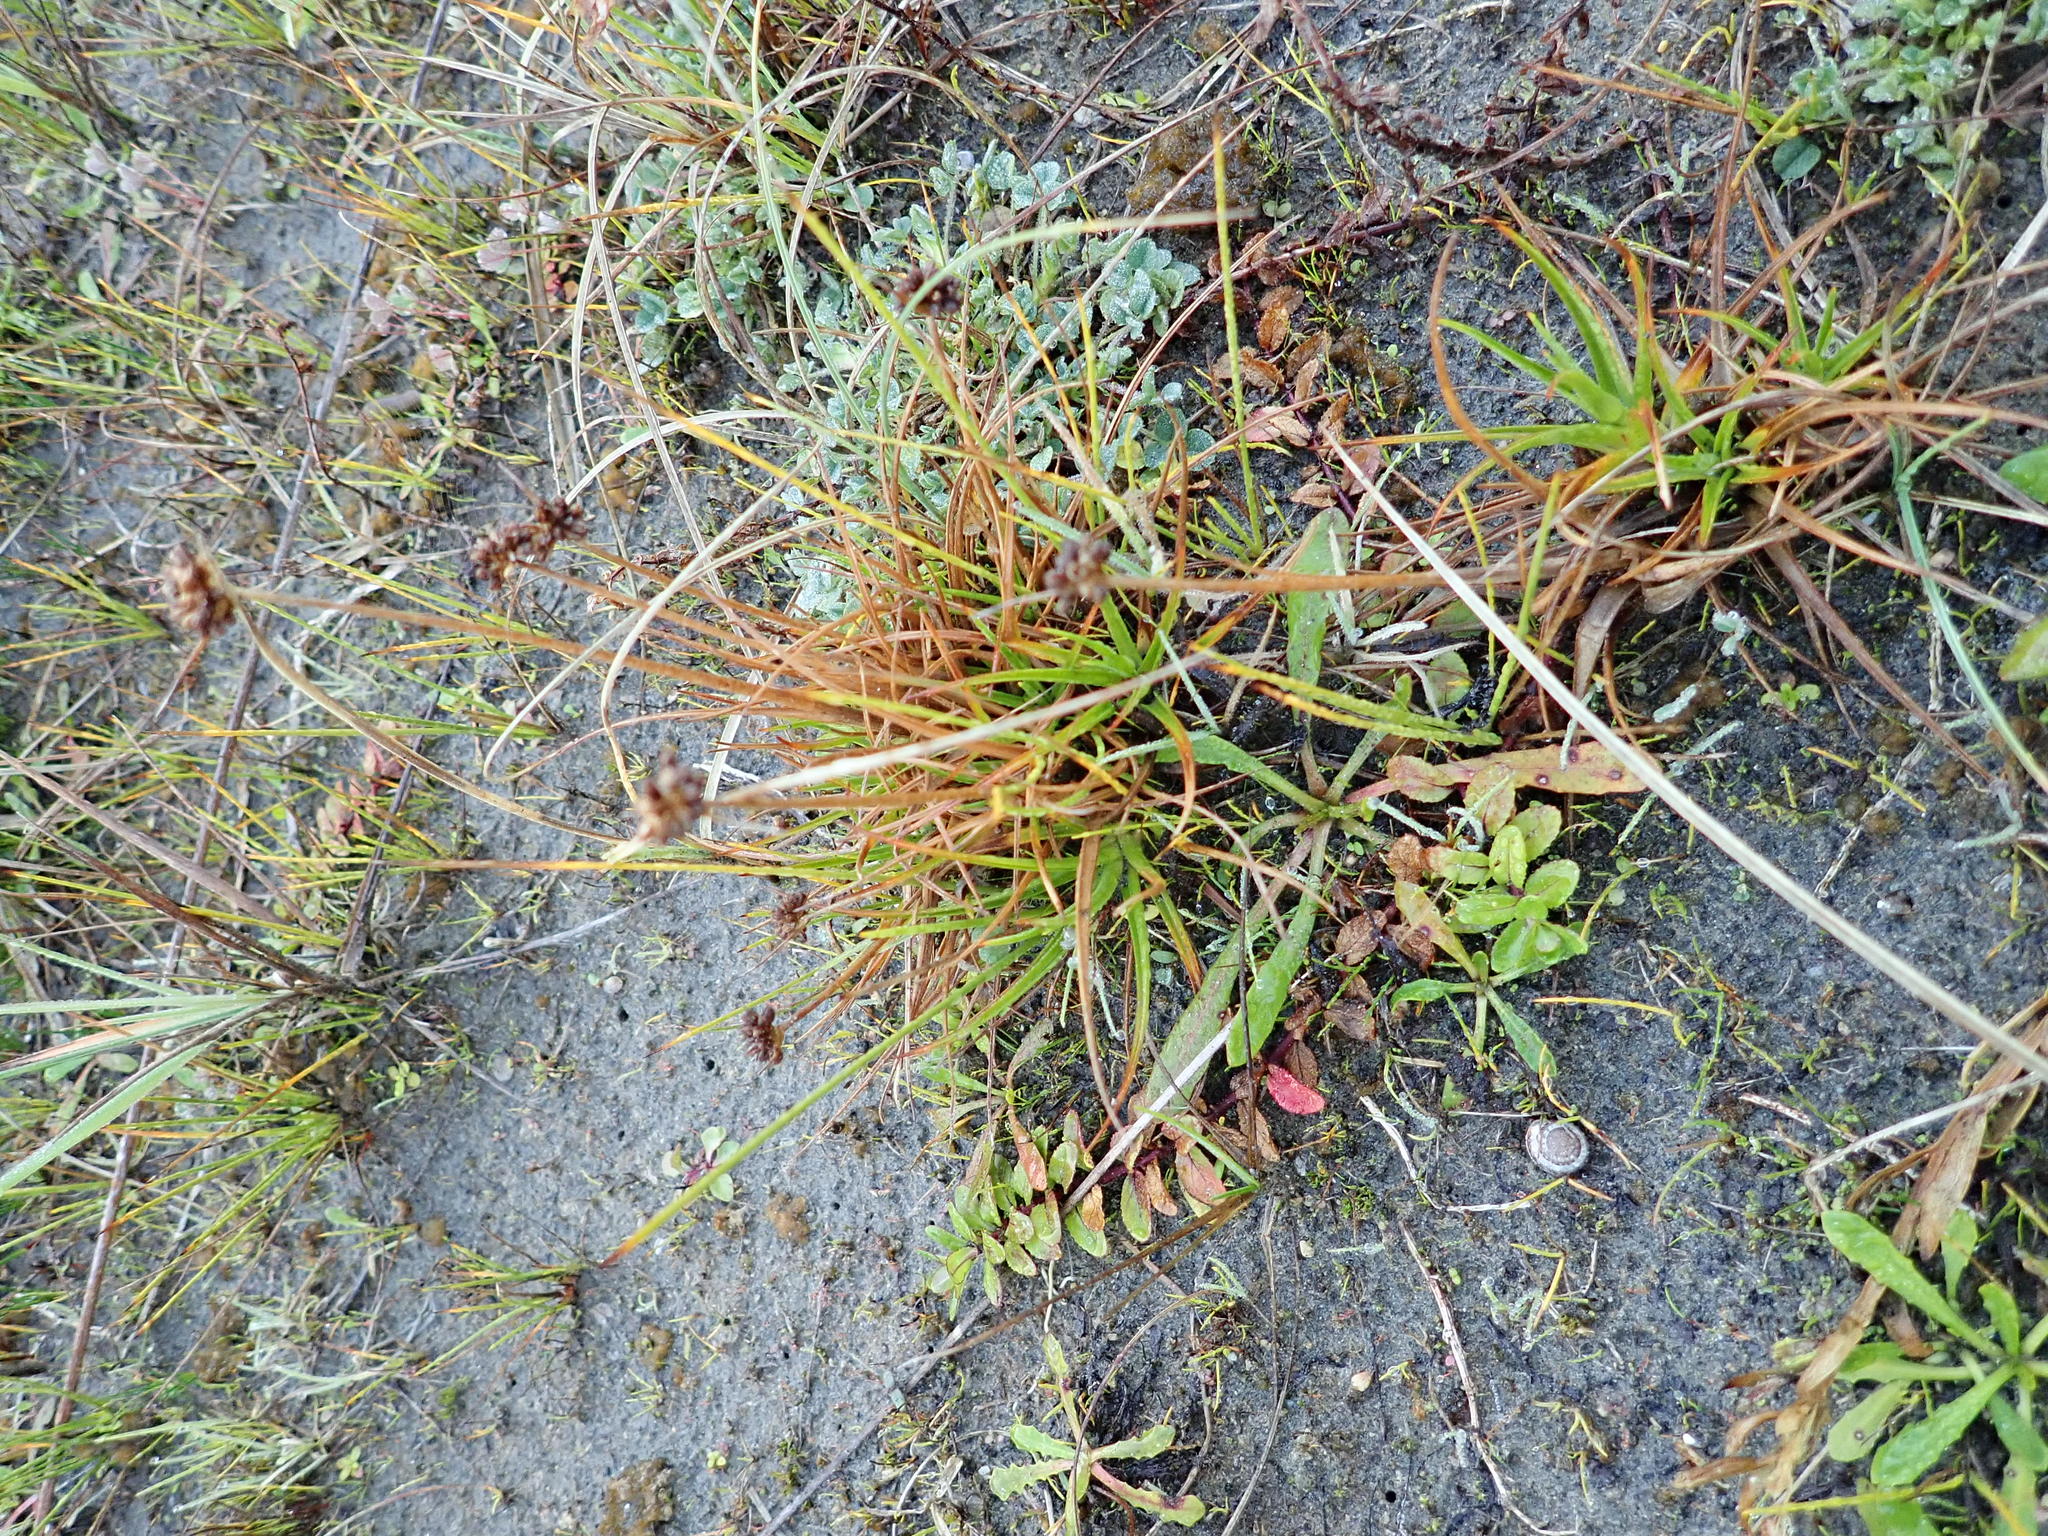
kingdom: Plantae
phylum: Tracheophyta
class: Liliopsida
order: Poales
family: Juncaceae
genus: Juncus
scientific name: Juncus caespiticius
